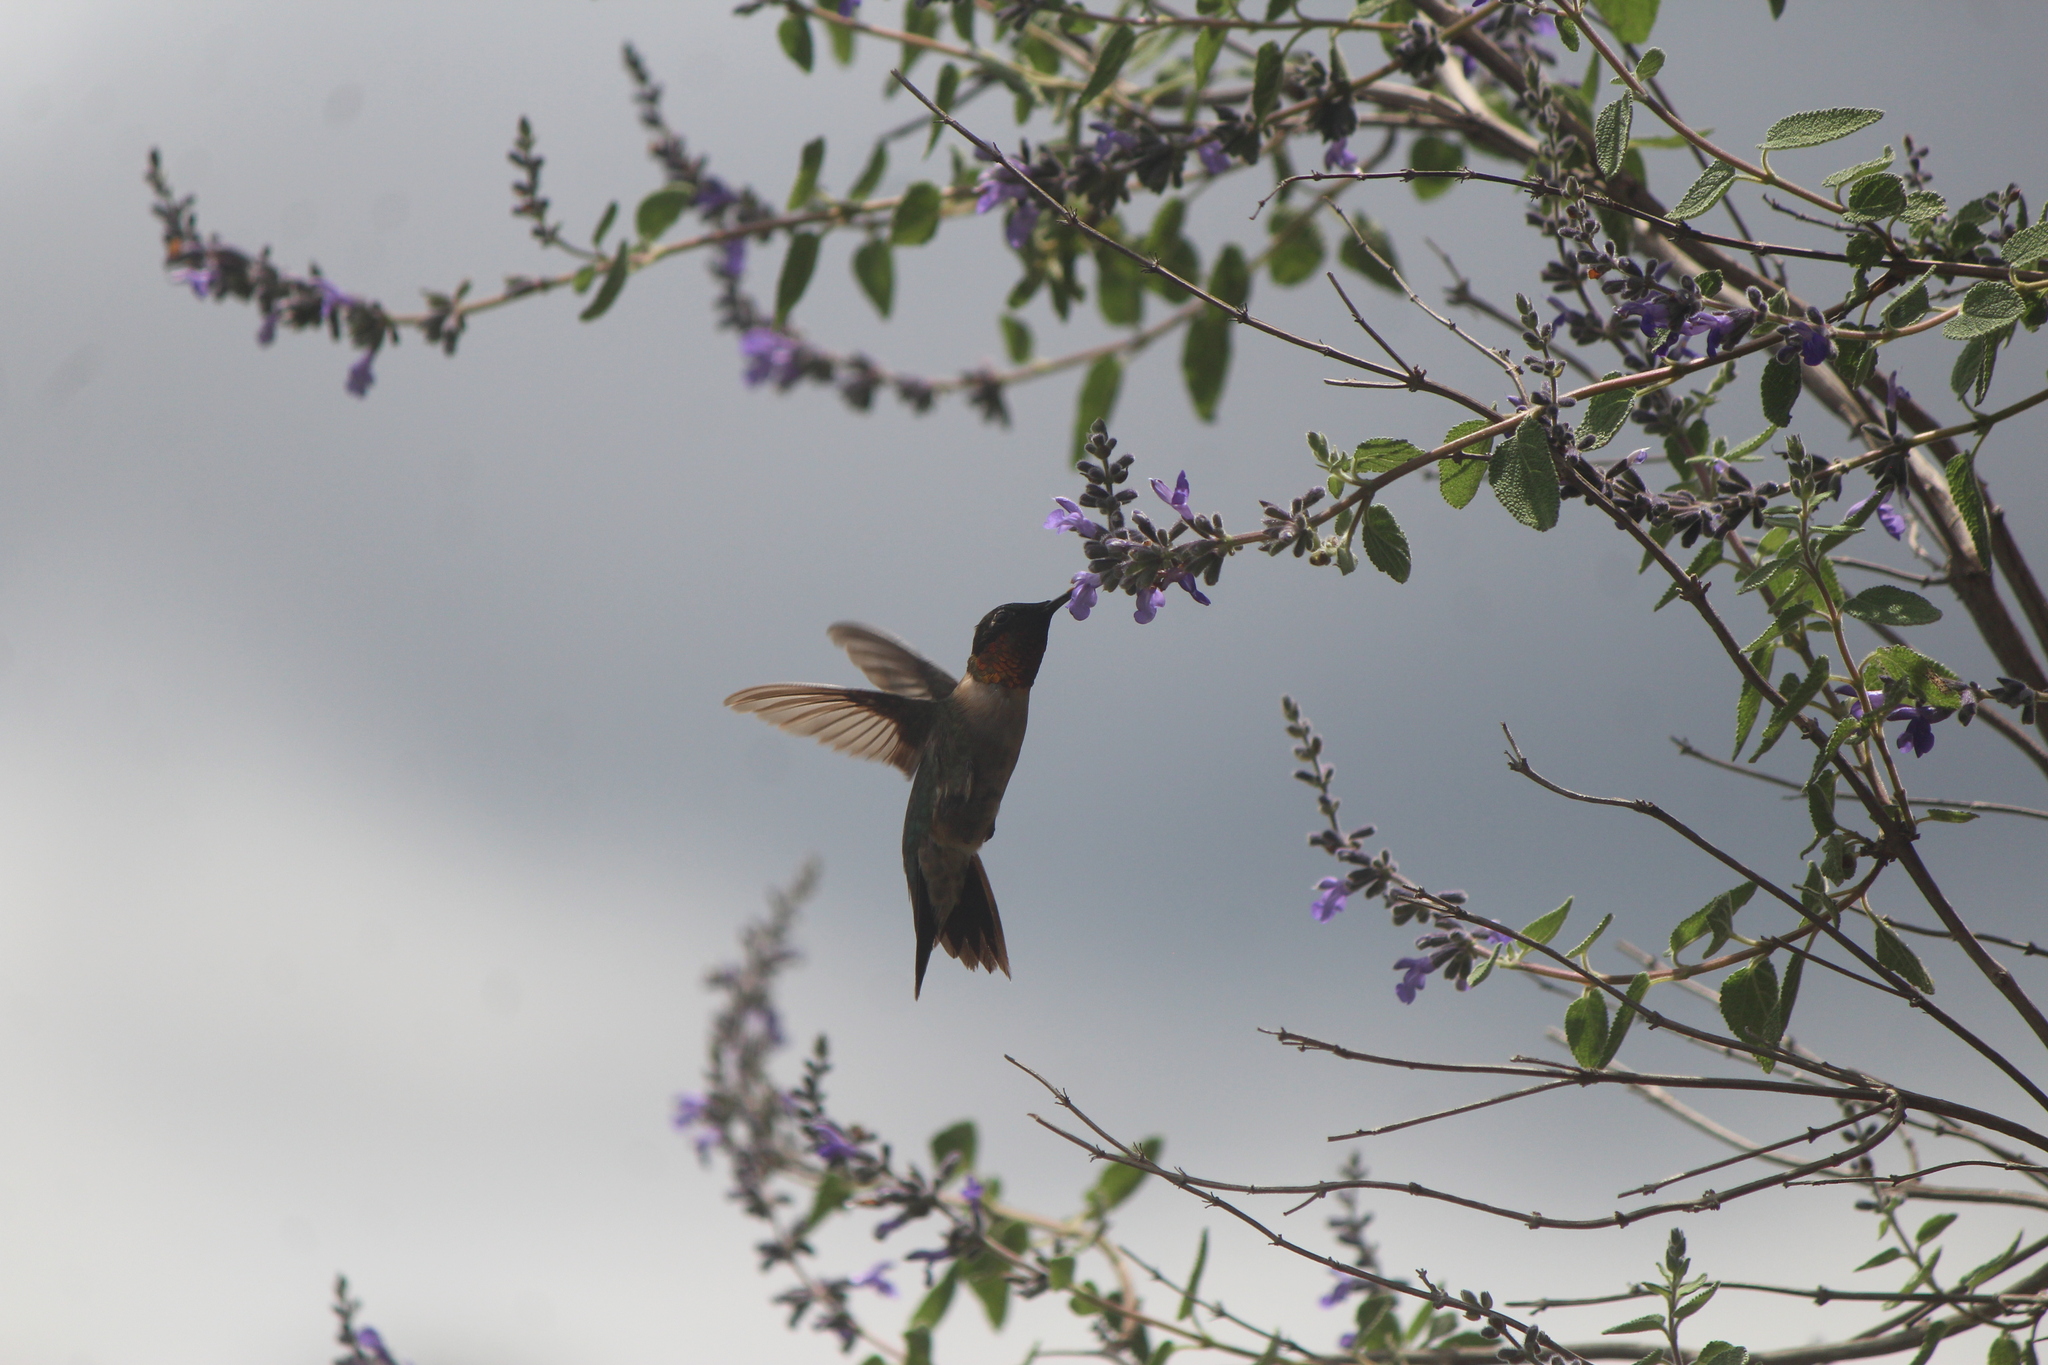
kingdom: Animalia
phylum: Chordata
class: Aves
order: Apodiformes
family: Trochilidae
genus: Archilochus
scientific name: Archilochus colubris
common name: Ruby-throated hummingbird
